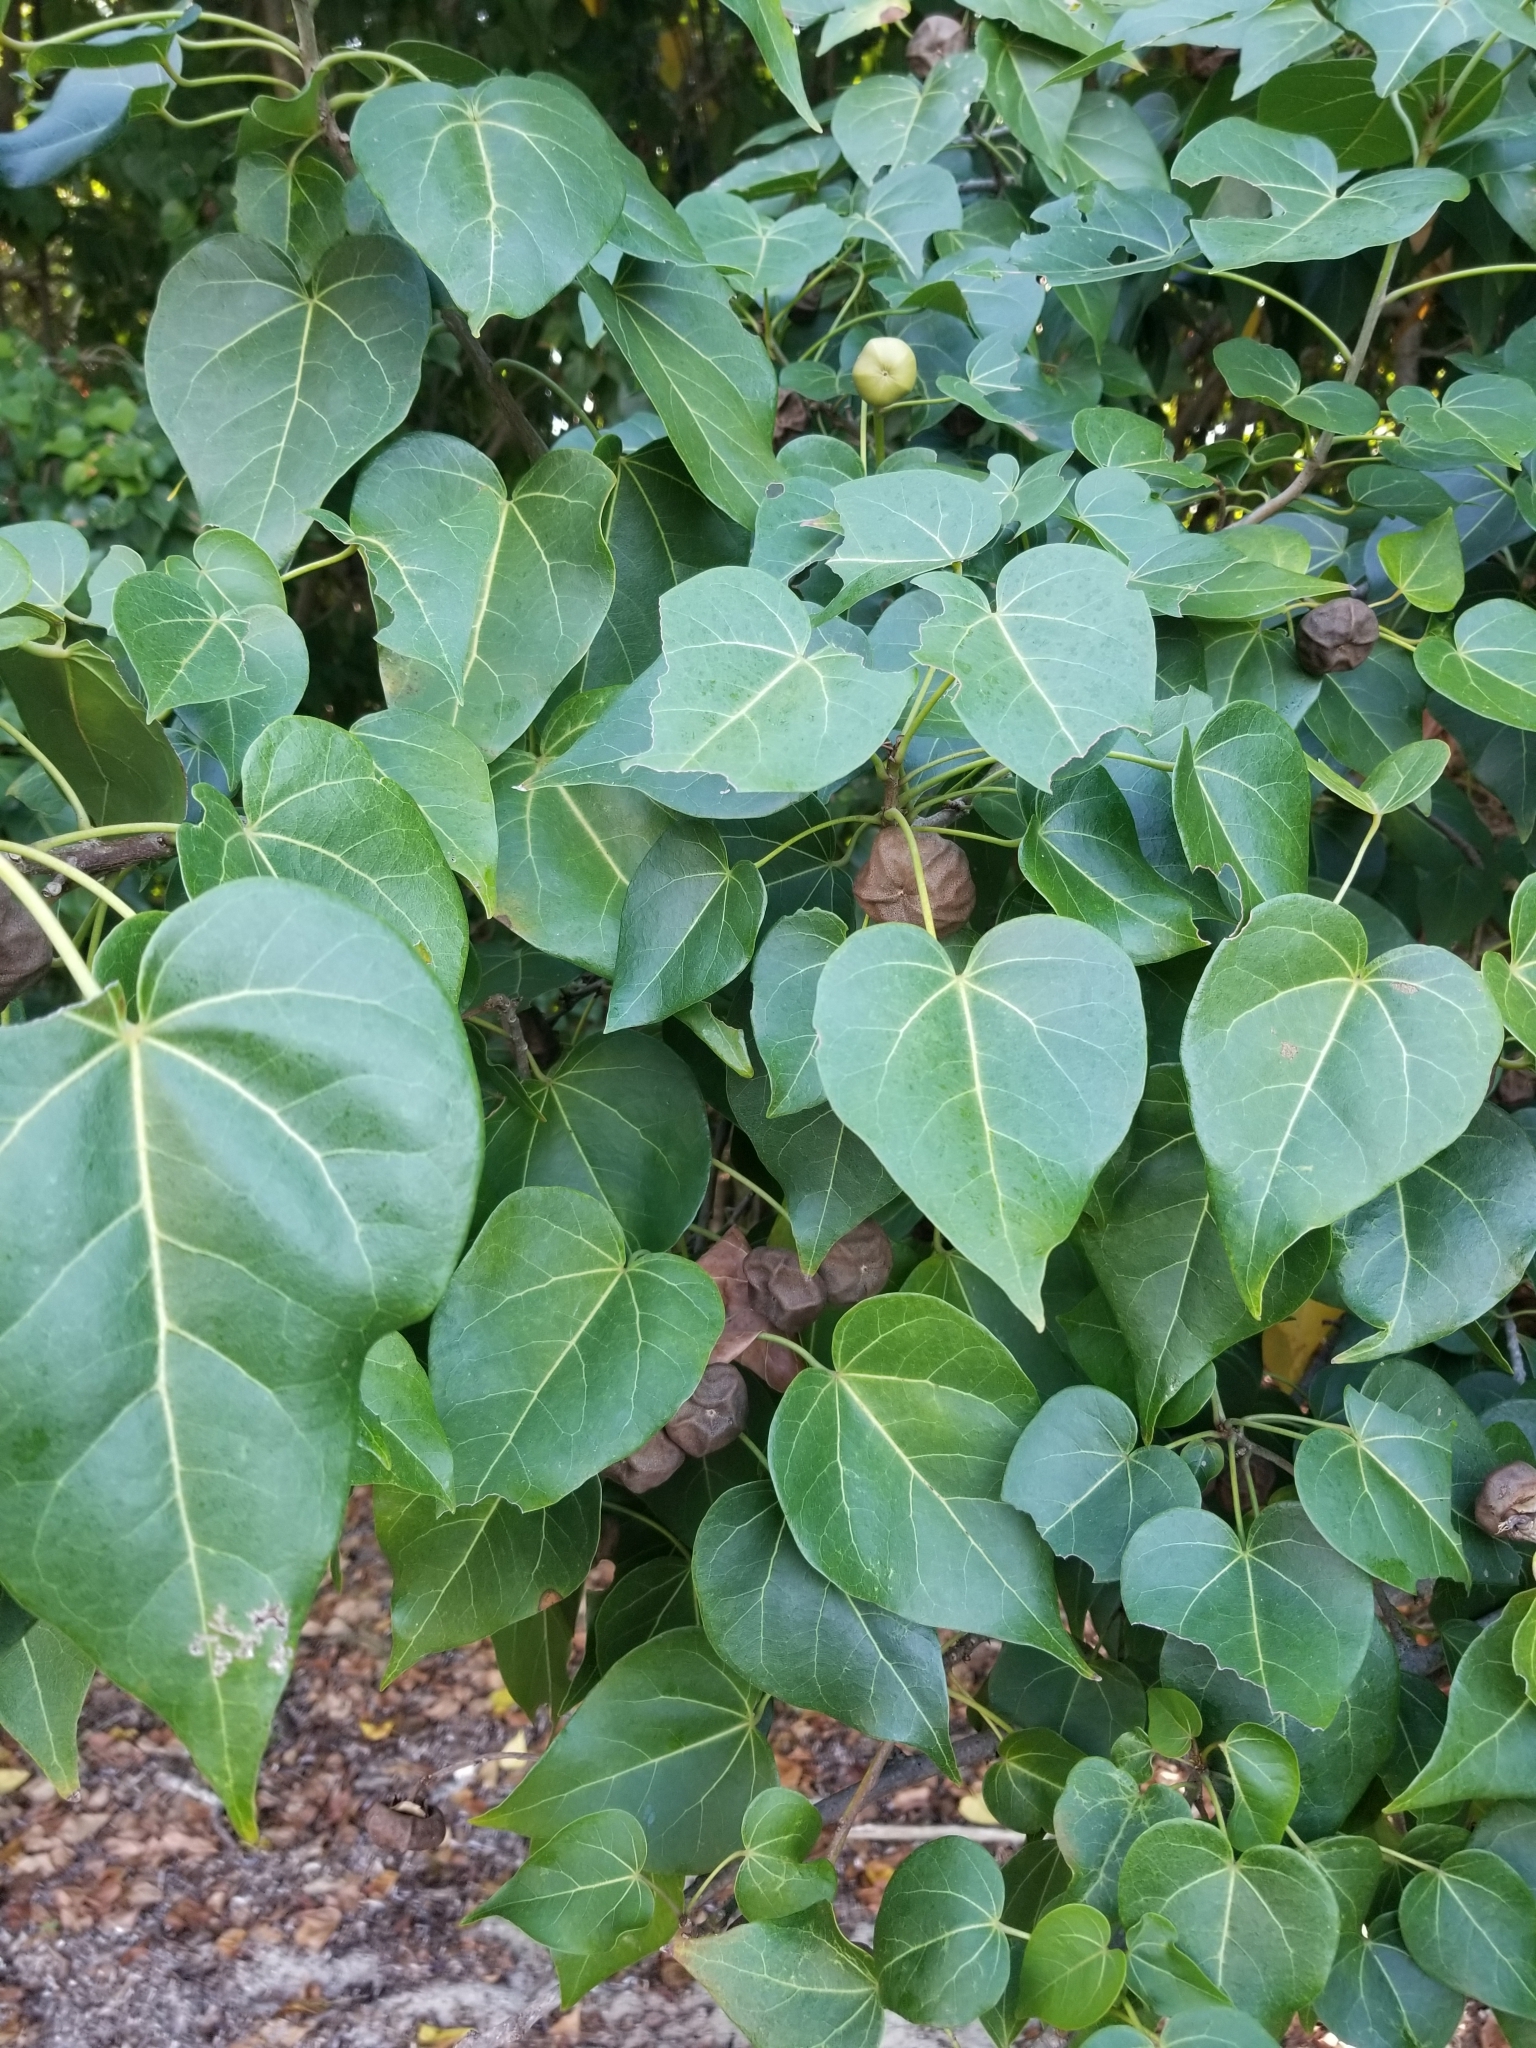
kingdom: Plantae
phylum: Tracheophyta
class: Magnoliopsida
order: Malvales
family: Malvaceae
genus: Thespesia
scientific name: Thespesia populnea
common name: Seaside mahoe
